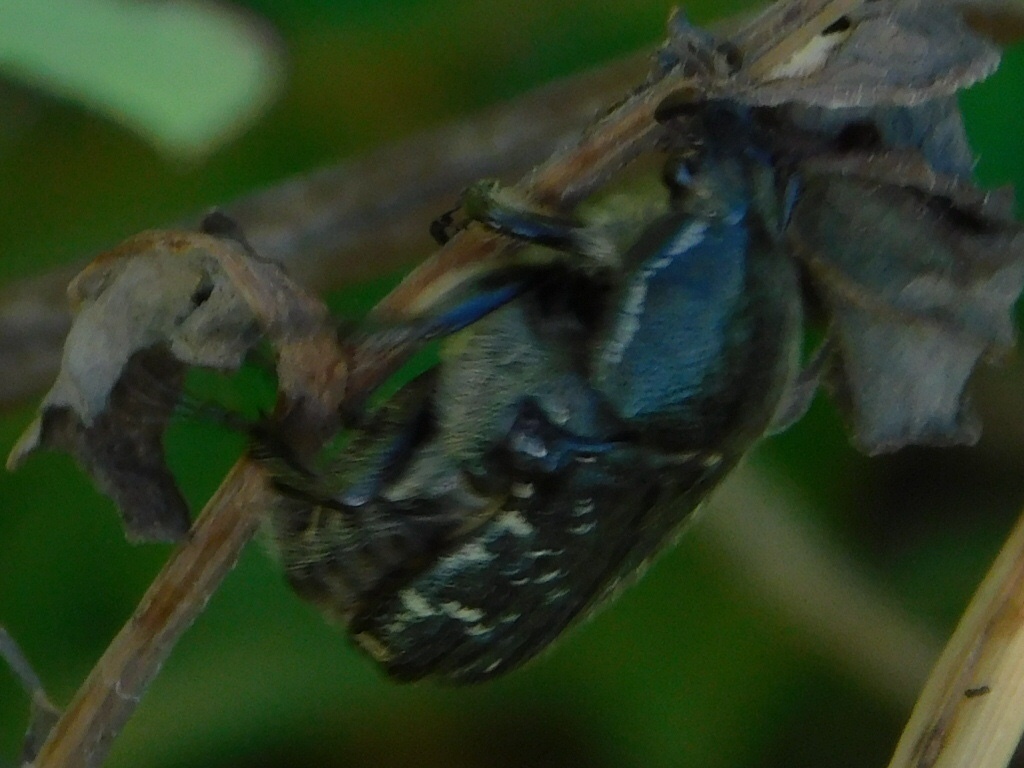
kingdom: Animalia
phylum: Arthropoda
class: Insecta
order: Coleoptera
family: Scarabaeidae
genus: Euphoria
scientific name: Euphoria sepulcralis
